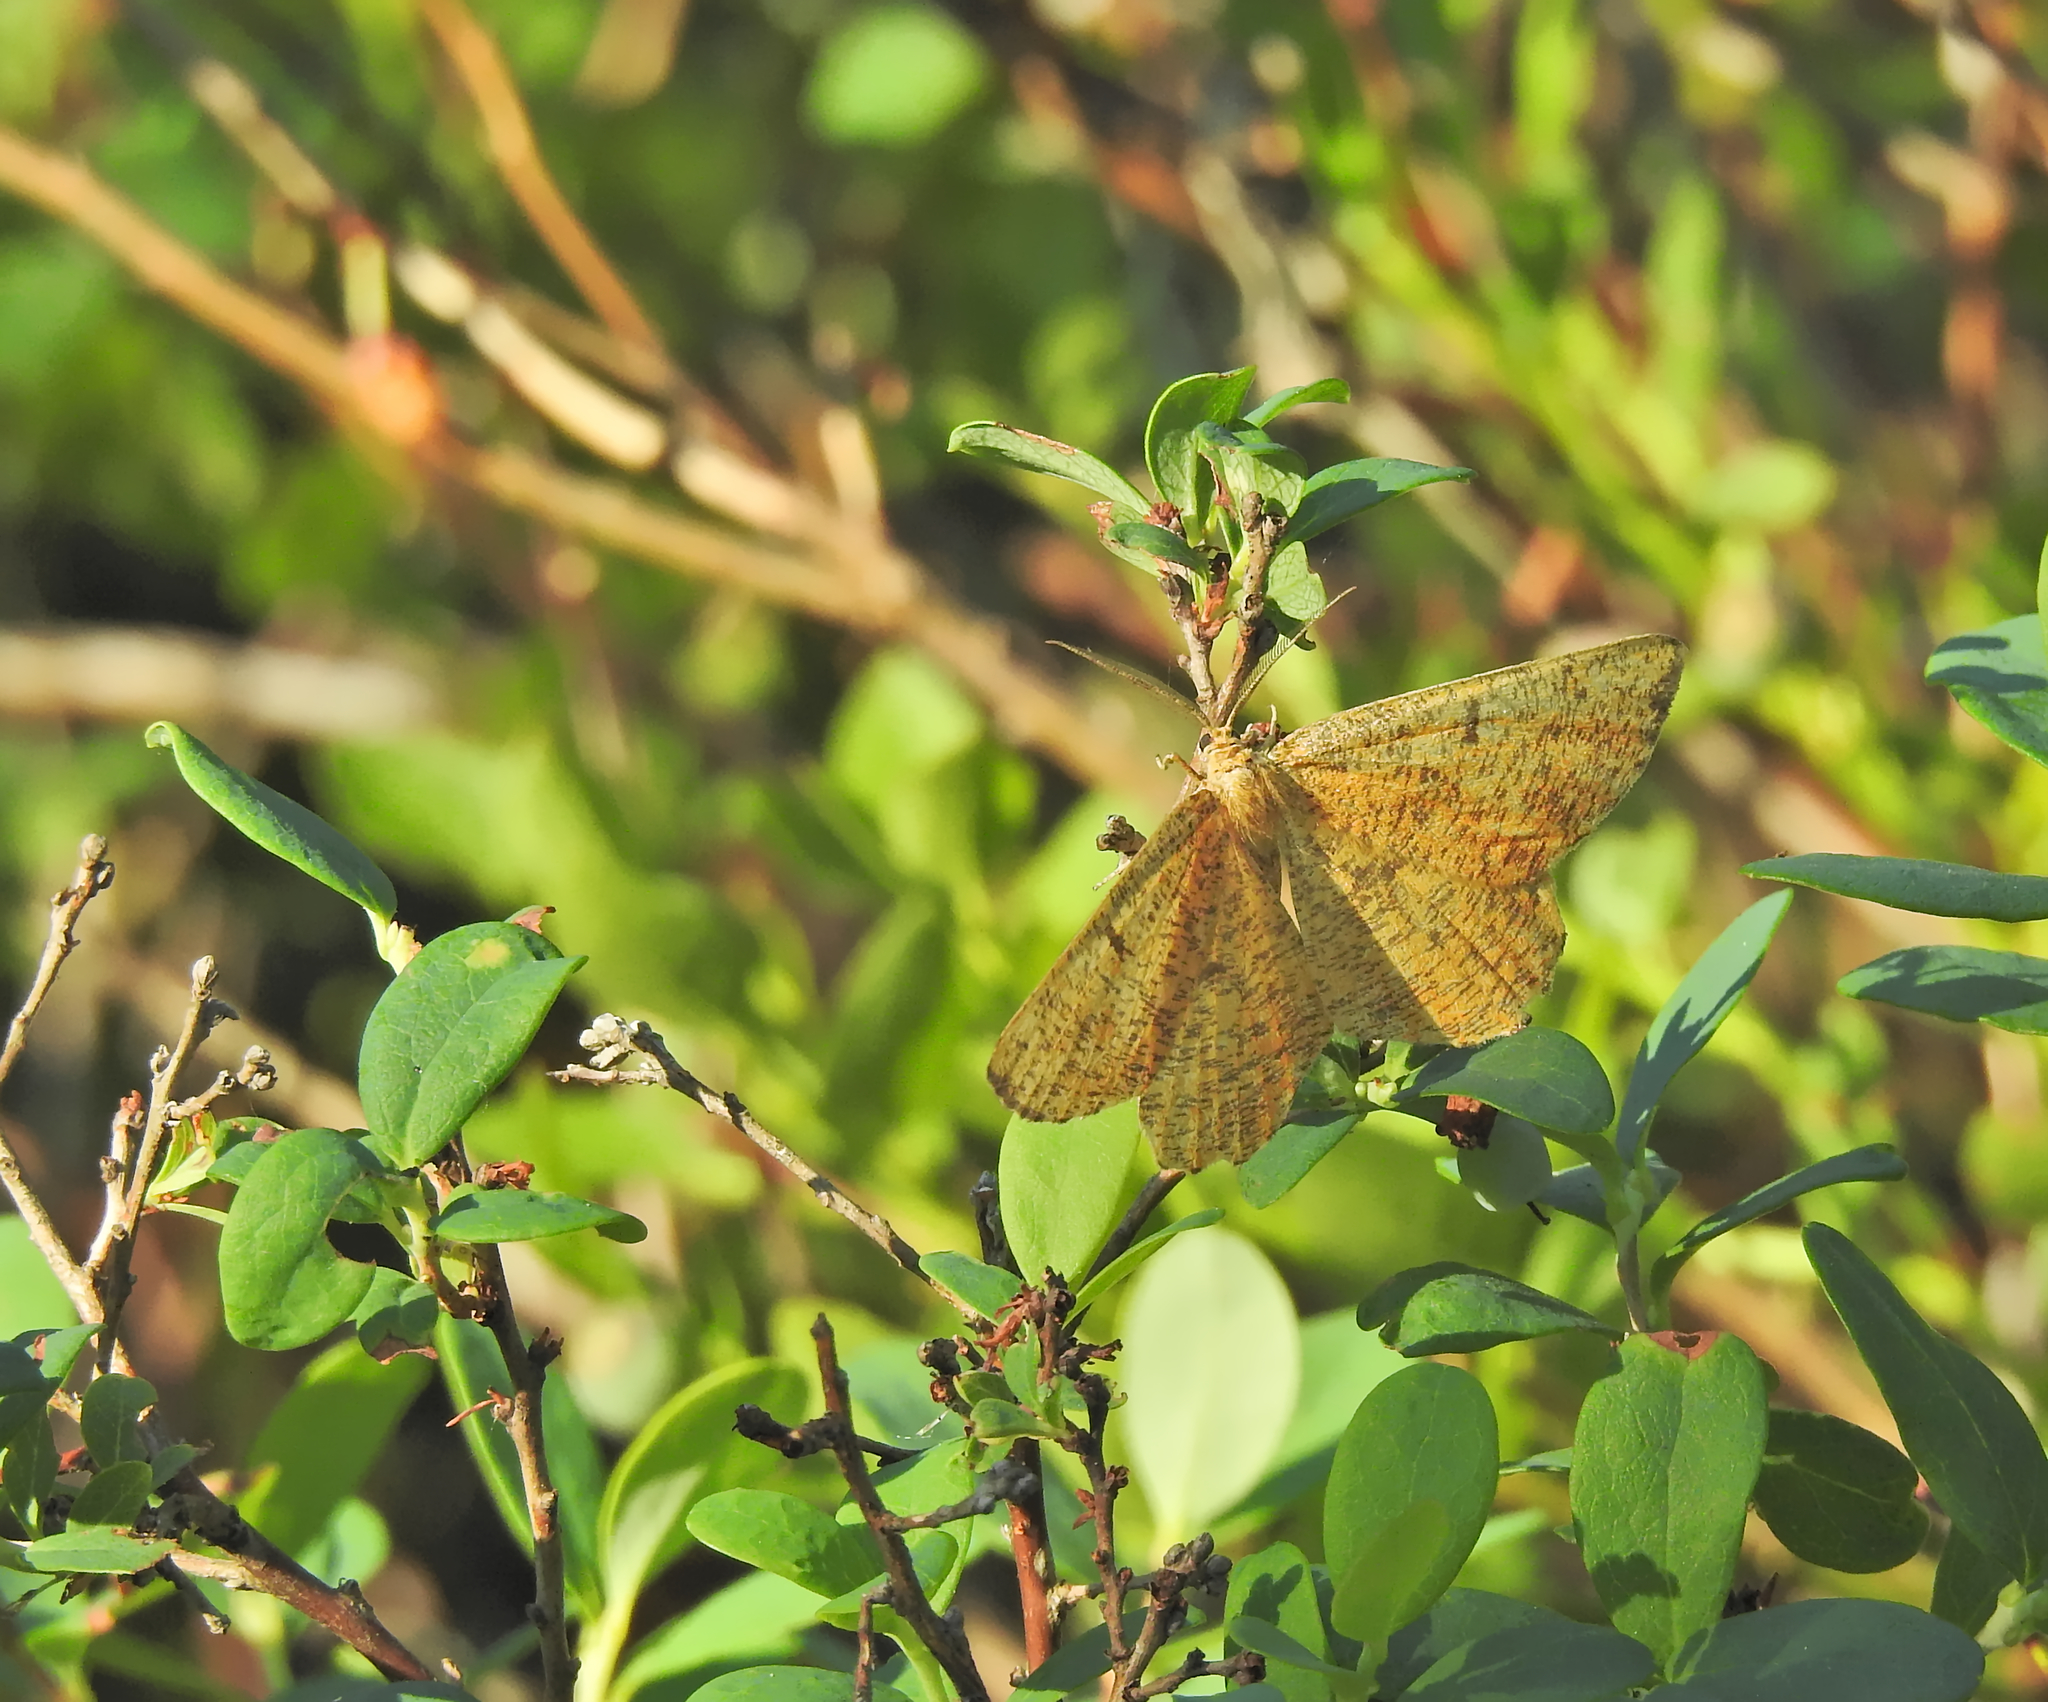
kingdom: Animalia
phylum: Arthropoda
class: Insecta
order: Lepidoptera
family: Geometridae
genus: Angerona
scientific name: Angerona prunaria
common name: Orange moth
